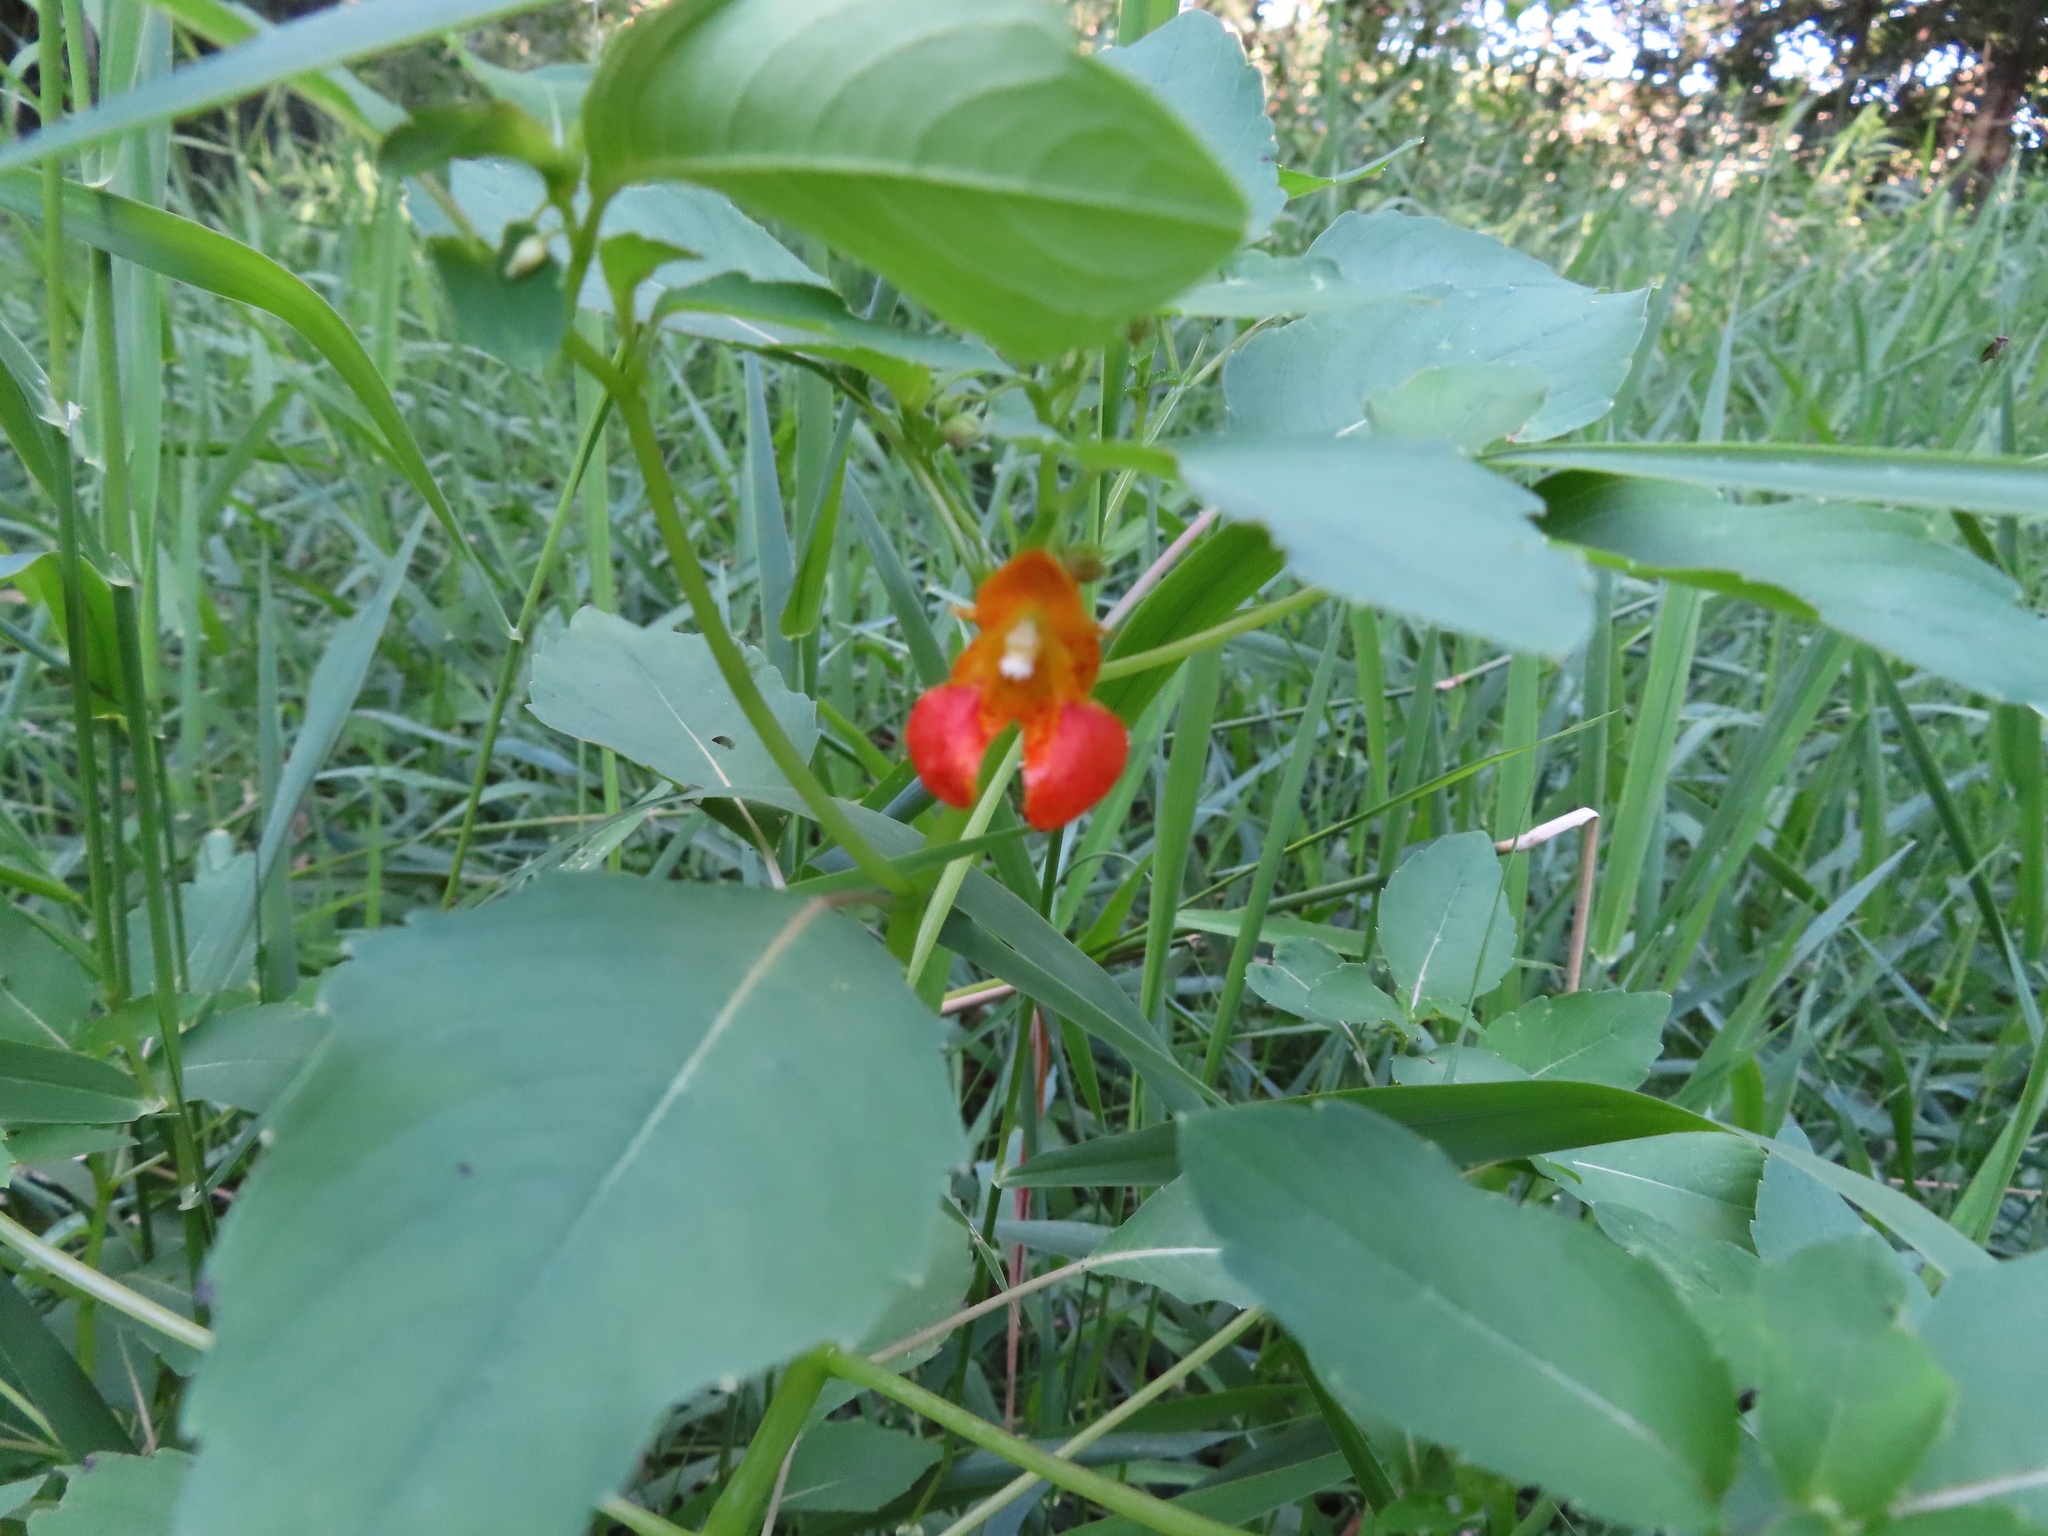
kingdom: Plantae
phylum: Tracheophyta
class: Magnoliopsida
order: Ericales
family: Balsaminaceae
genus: Impatiens
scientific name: Impatiens capensis
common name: Orange balsam
